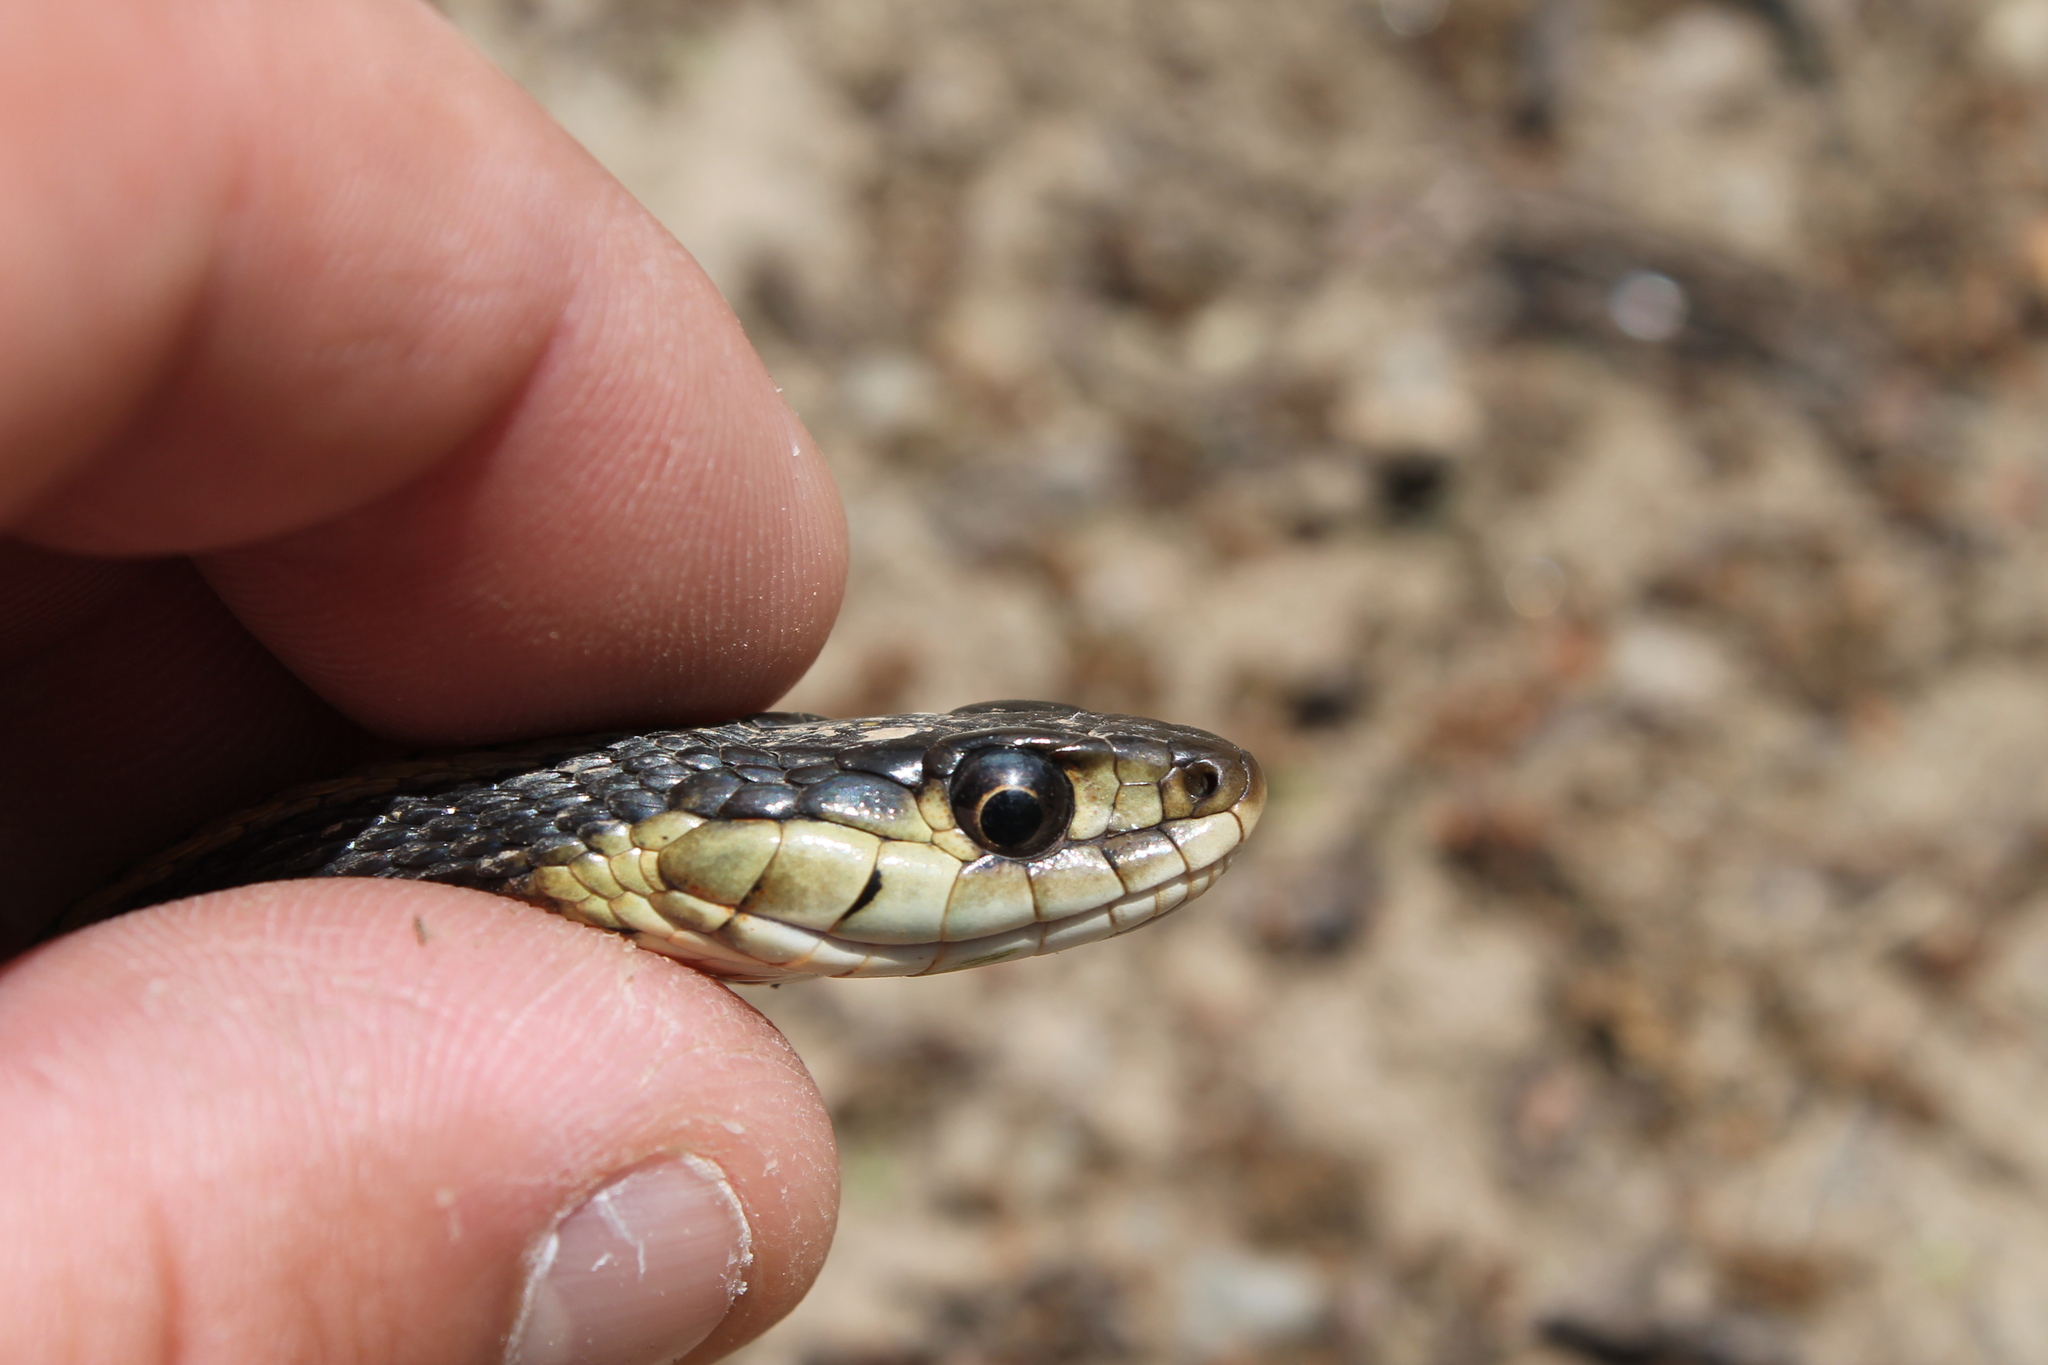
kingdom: Animalia
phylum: Chordata
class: Squamata
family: Colubridae
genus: Thamnophis
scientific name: Thamnophis sirtalis
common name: Common garter snake
